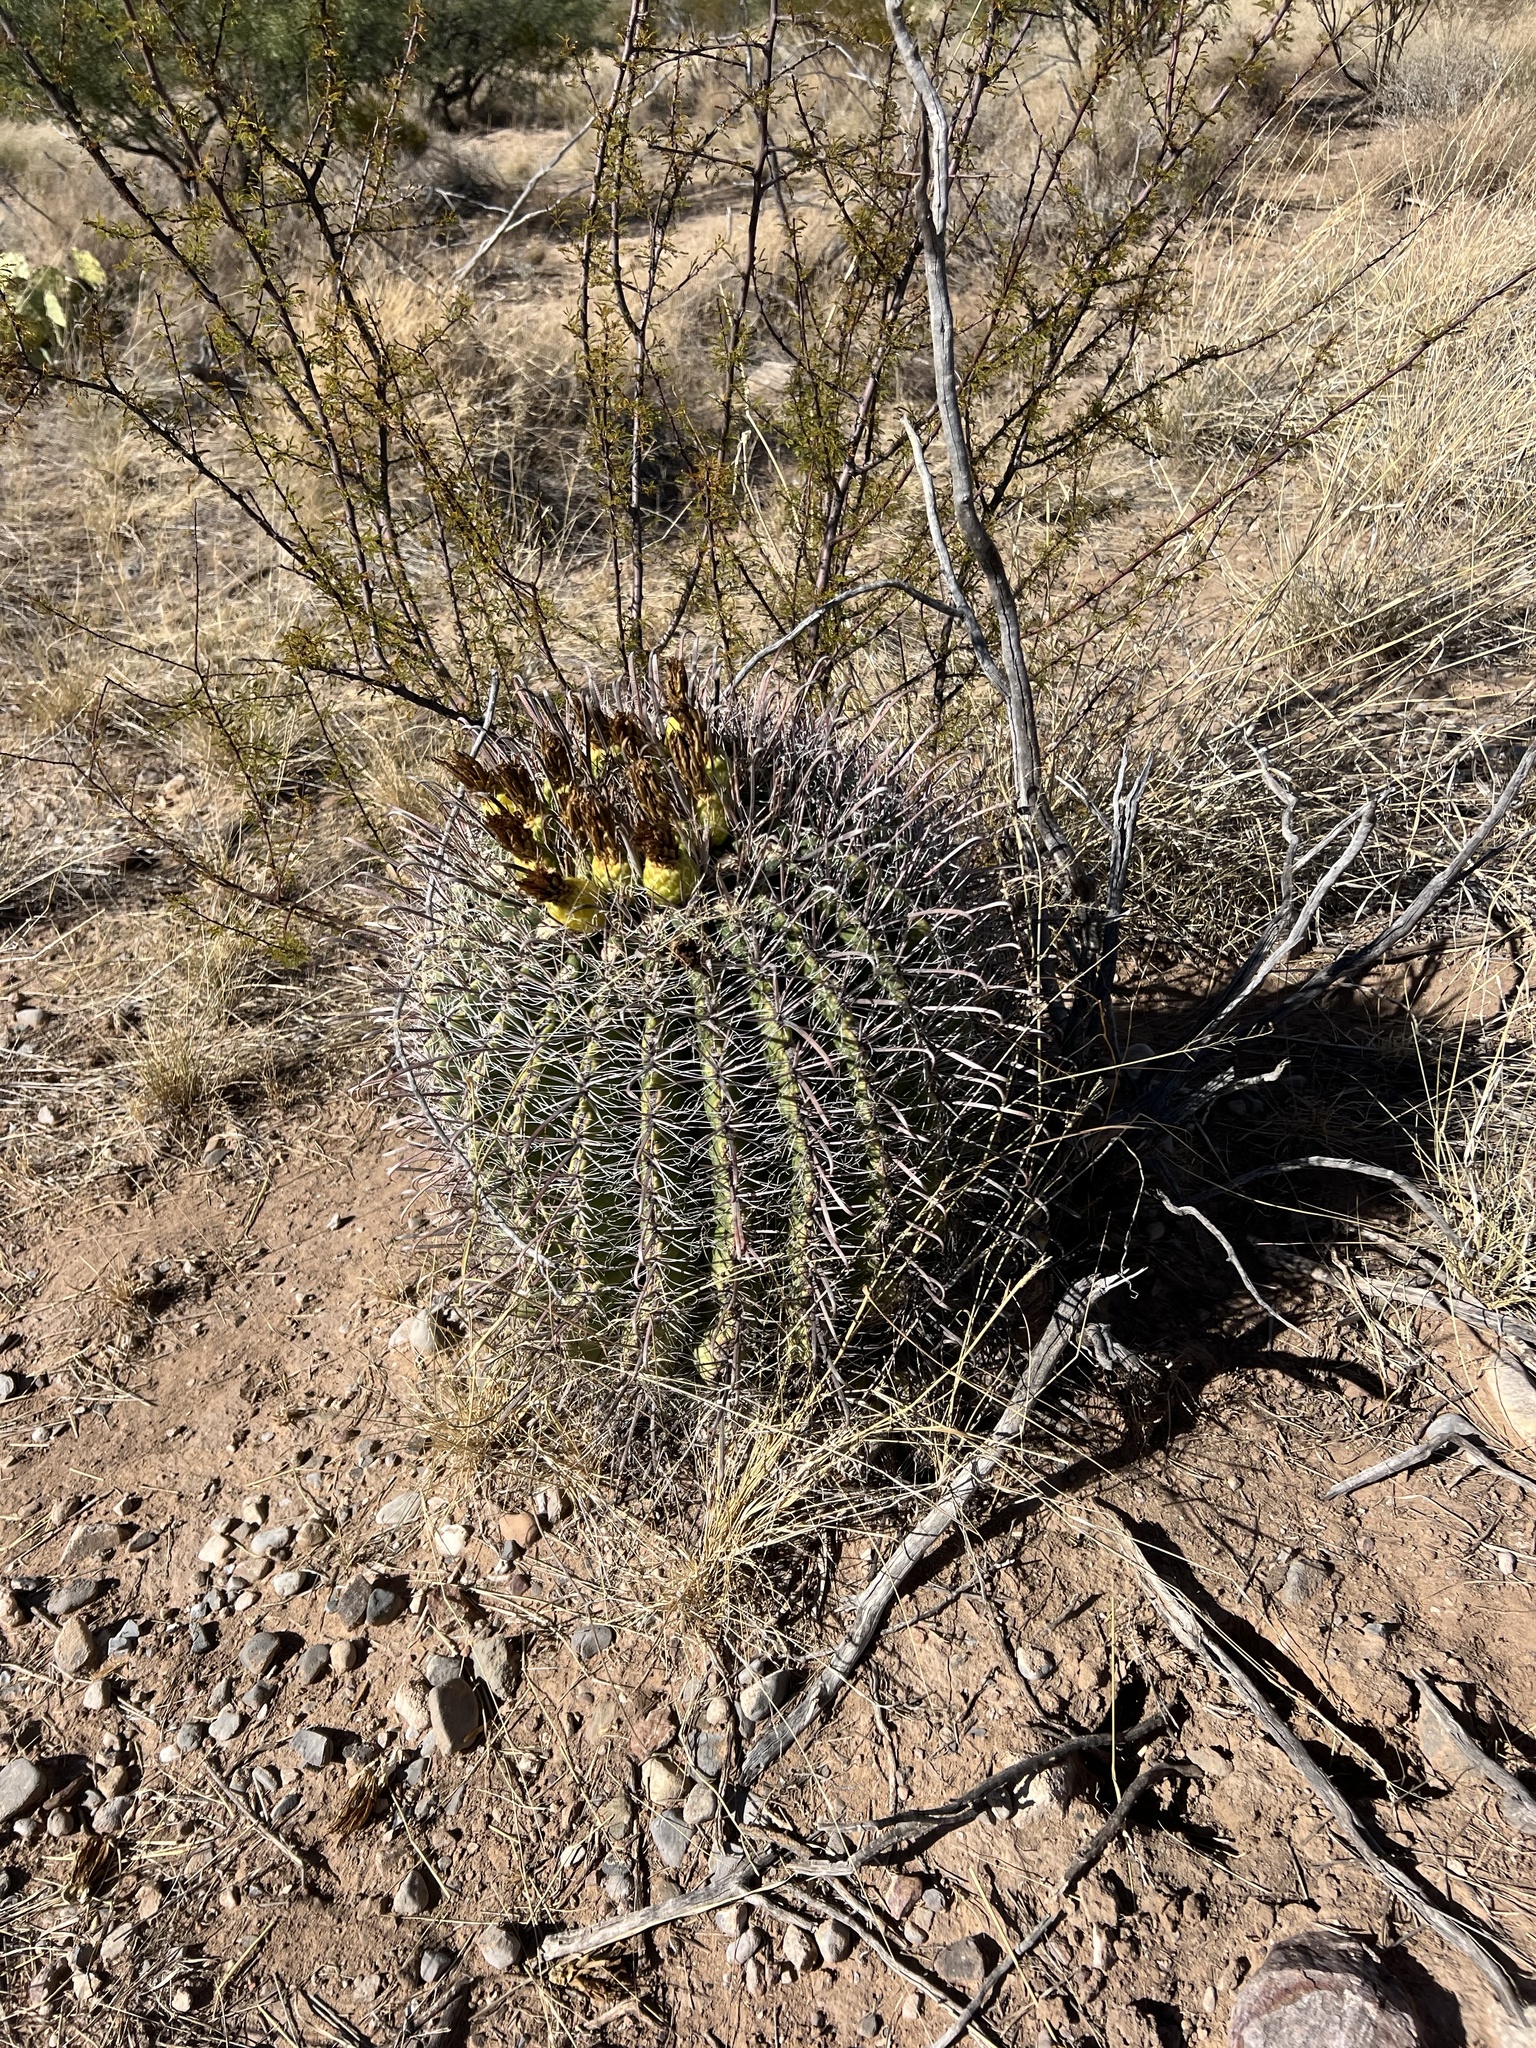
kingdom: Plantae
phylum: Tracheophyta
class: Magnoliopsida
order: Caryophyllales
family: Cactaceae
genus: Ferocactus
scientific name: Ferocactus wislizeni
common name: Candy barrel cactus
